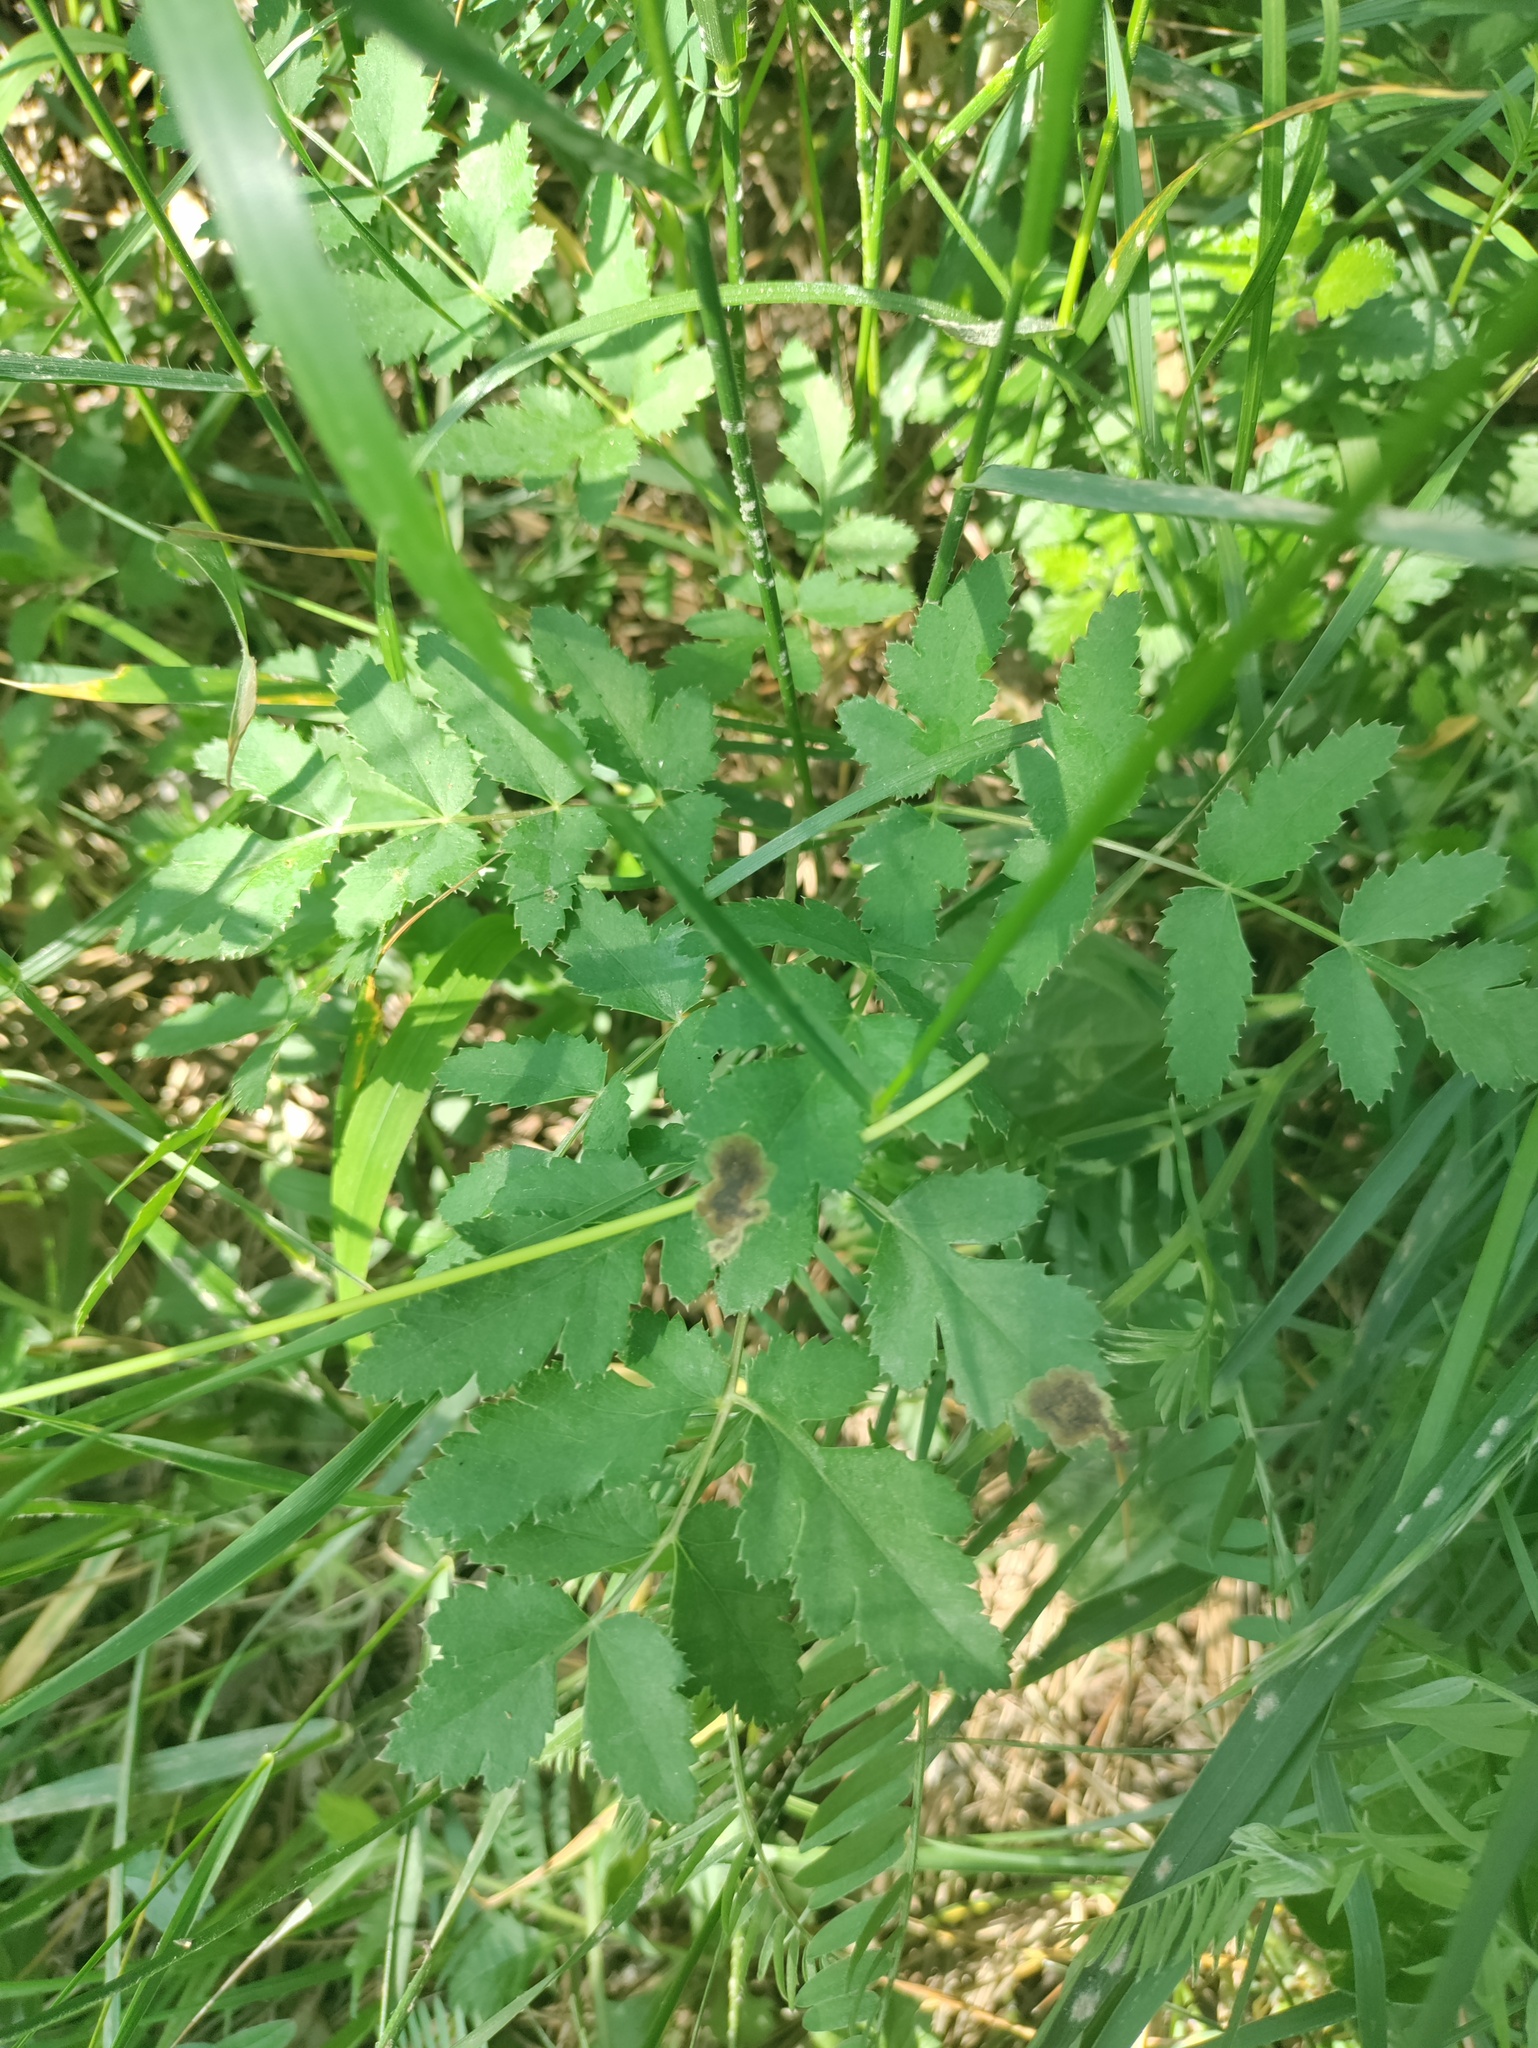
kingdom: Plantae
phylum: Tracheophyta
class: Magnoliopsida
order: Apiales
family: Apiaceae
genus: Cervaria
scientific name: Cervaria rivini
